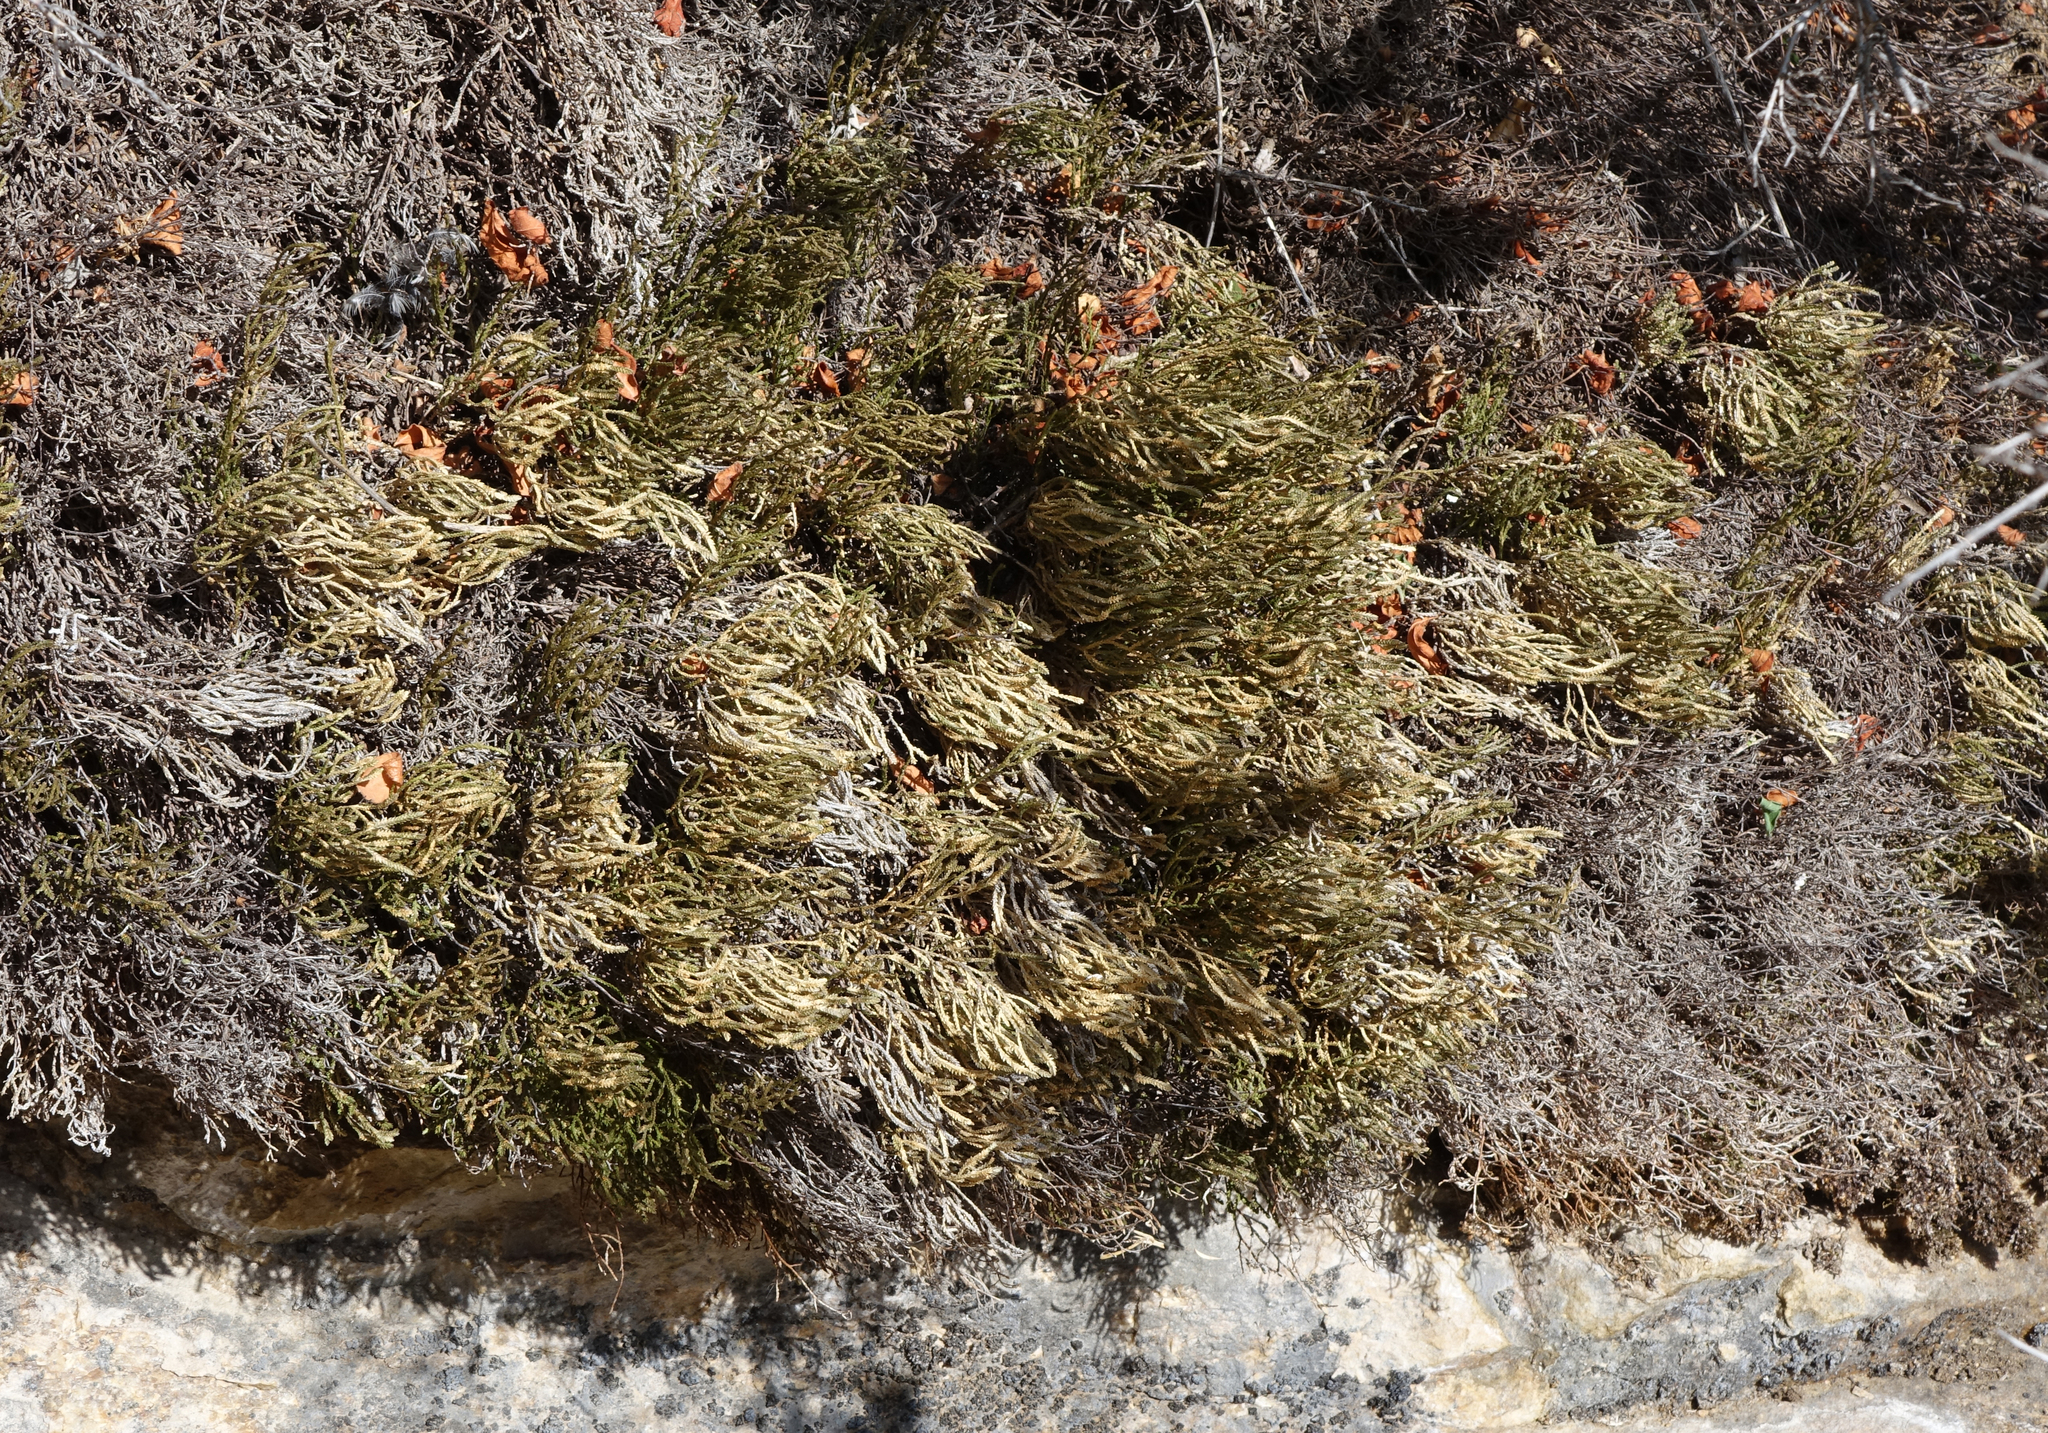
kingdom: Plantae
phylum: Tracheophyta
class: Lycopodiopsida
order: Selaginellales
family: Selaginellaceae
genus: Selaginella
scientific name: Selaginella sanguinolenta
